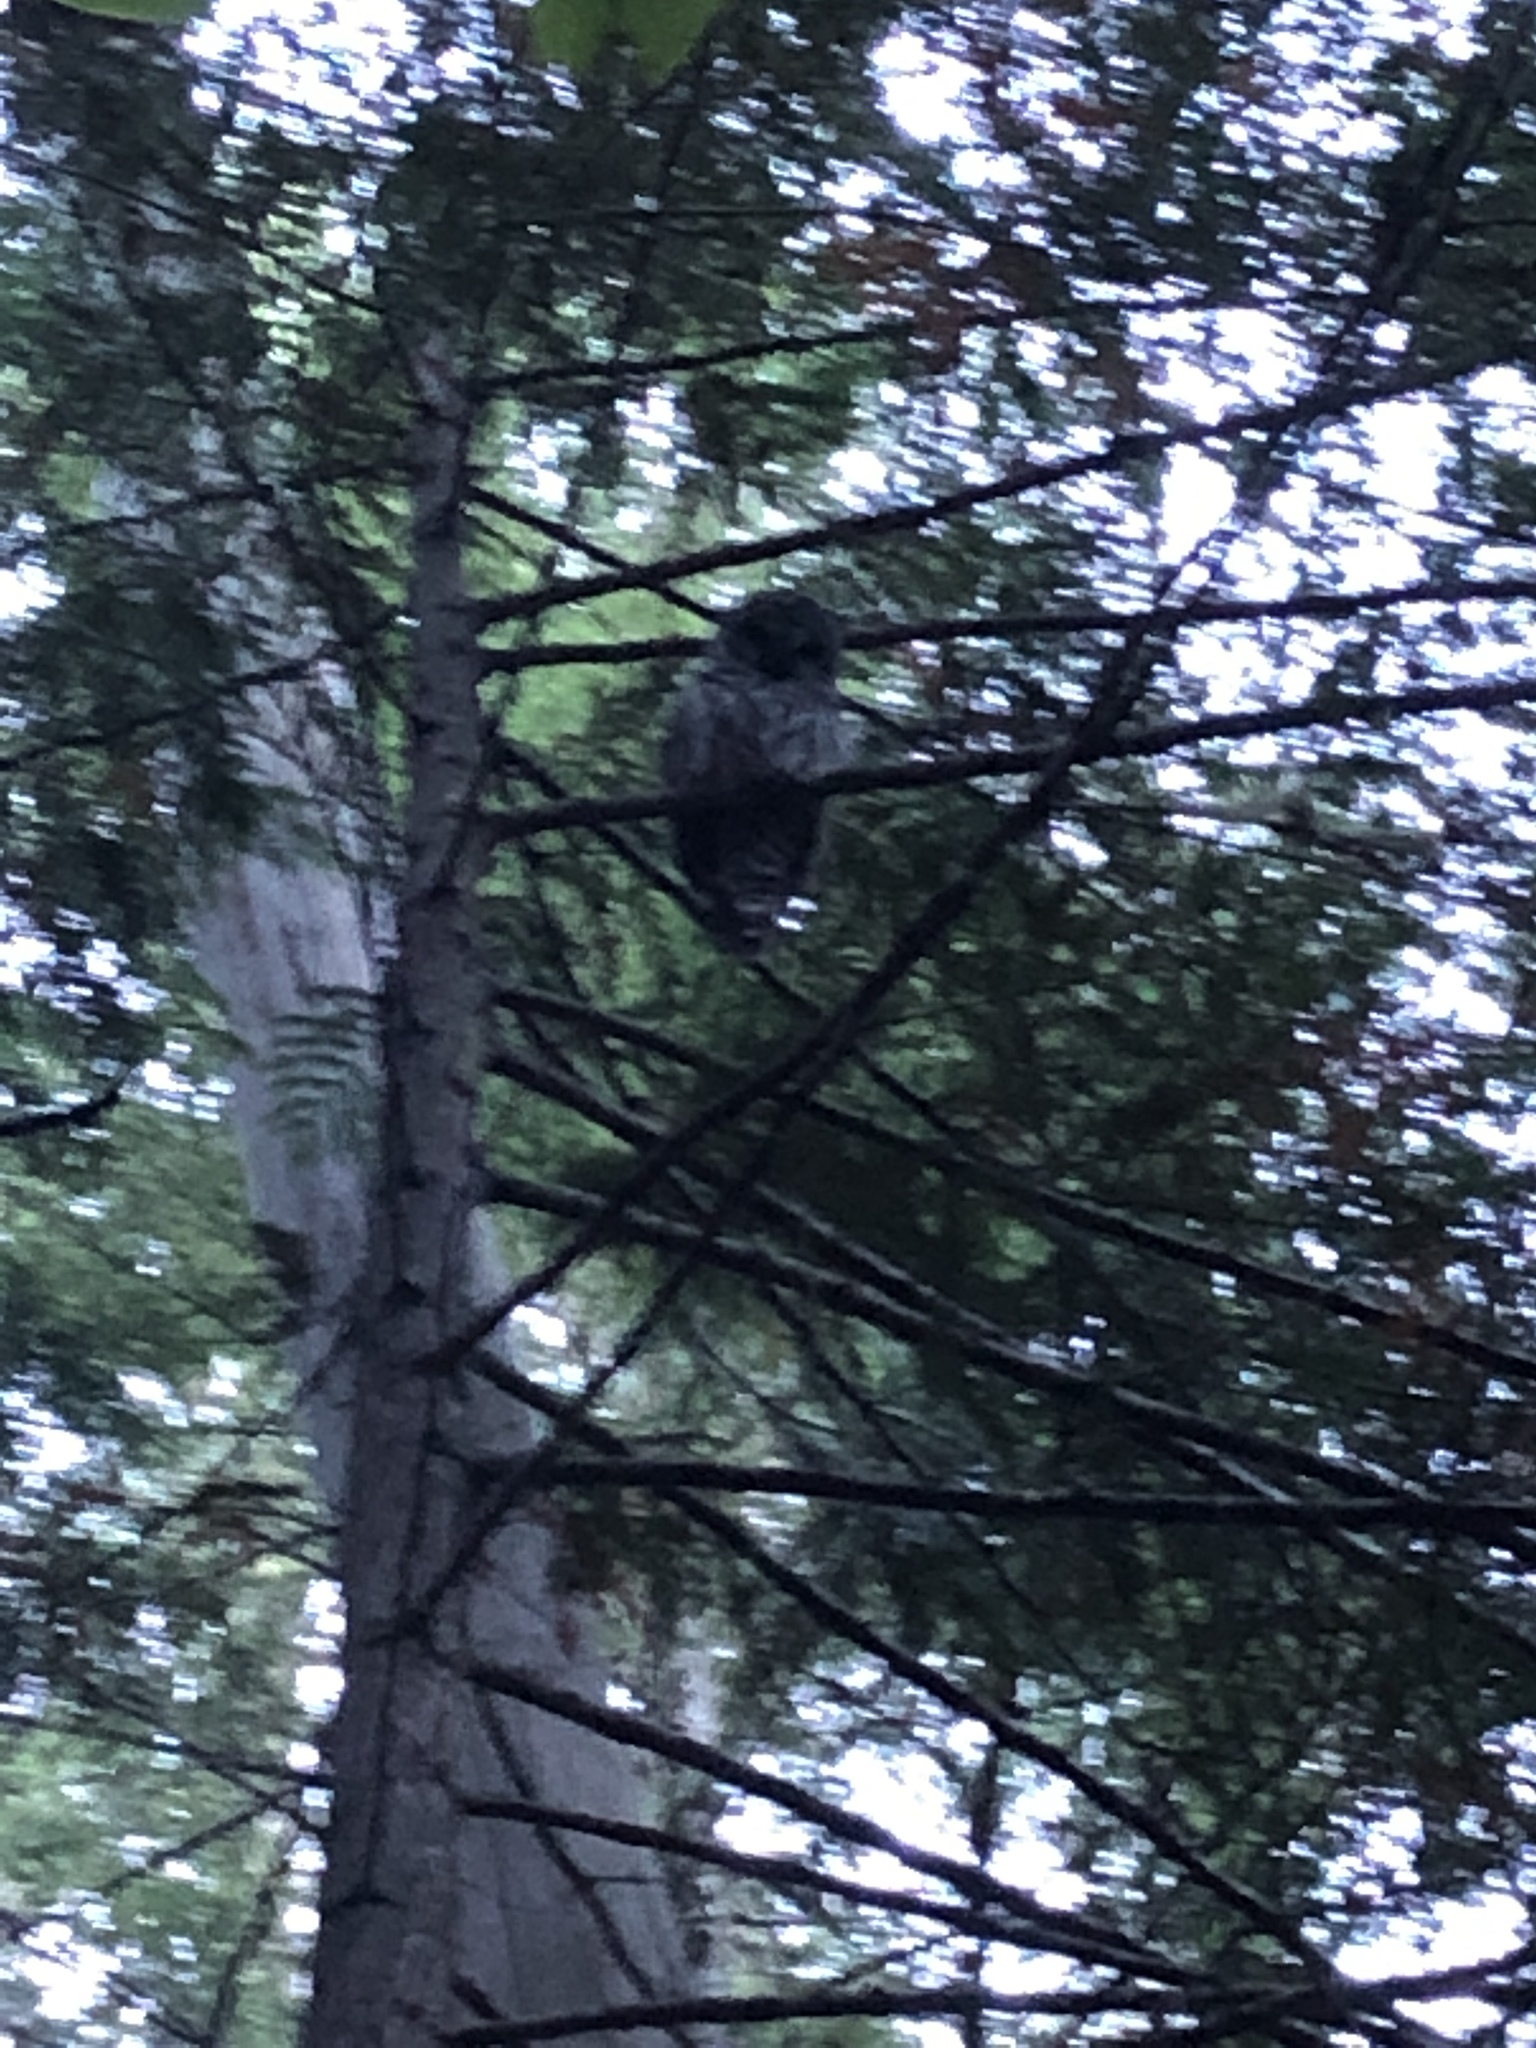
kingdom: Animalia
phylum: Chordata
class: Aves
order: Strigiformes
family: Strigidae
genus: Strix
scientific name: Strix varia
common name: Barred owl
